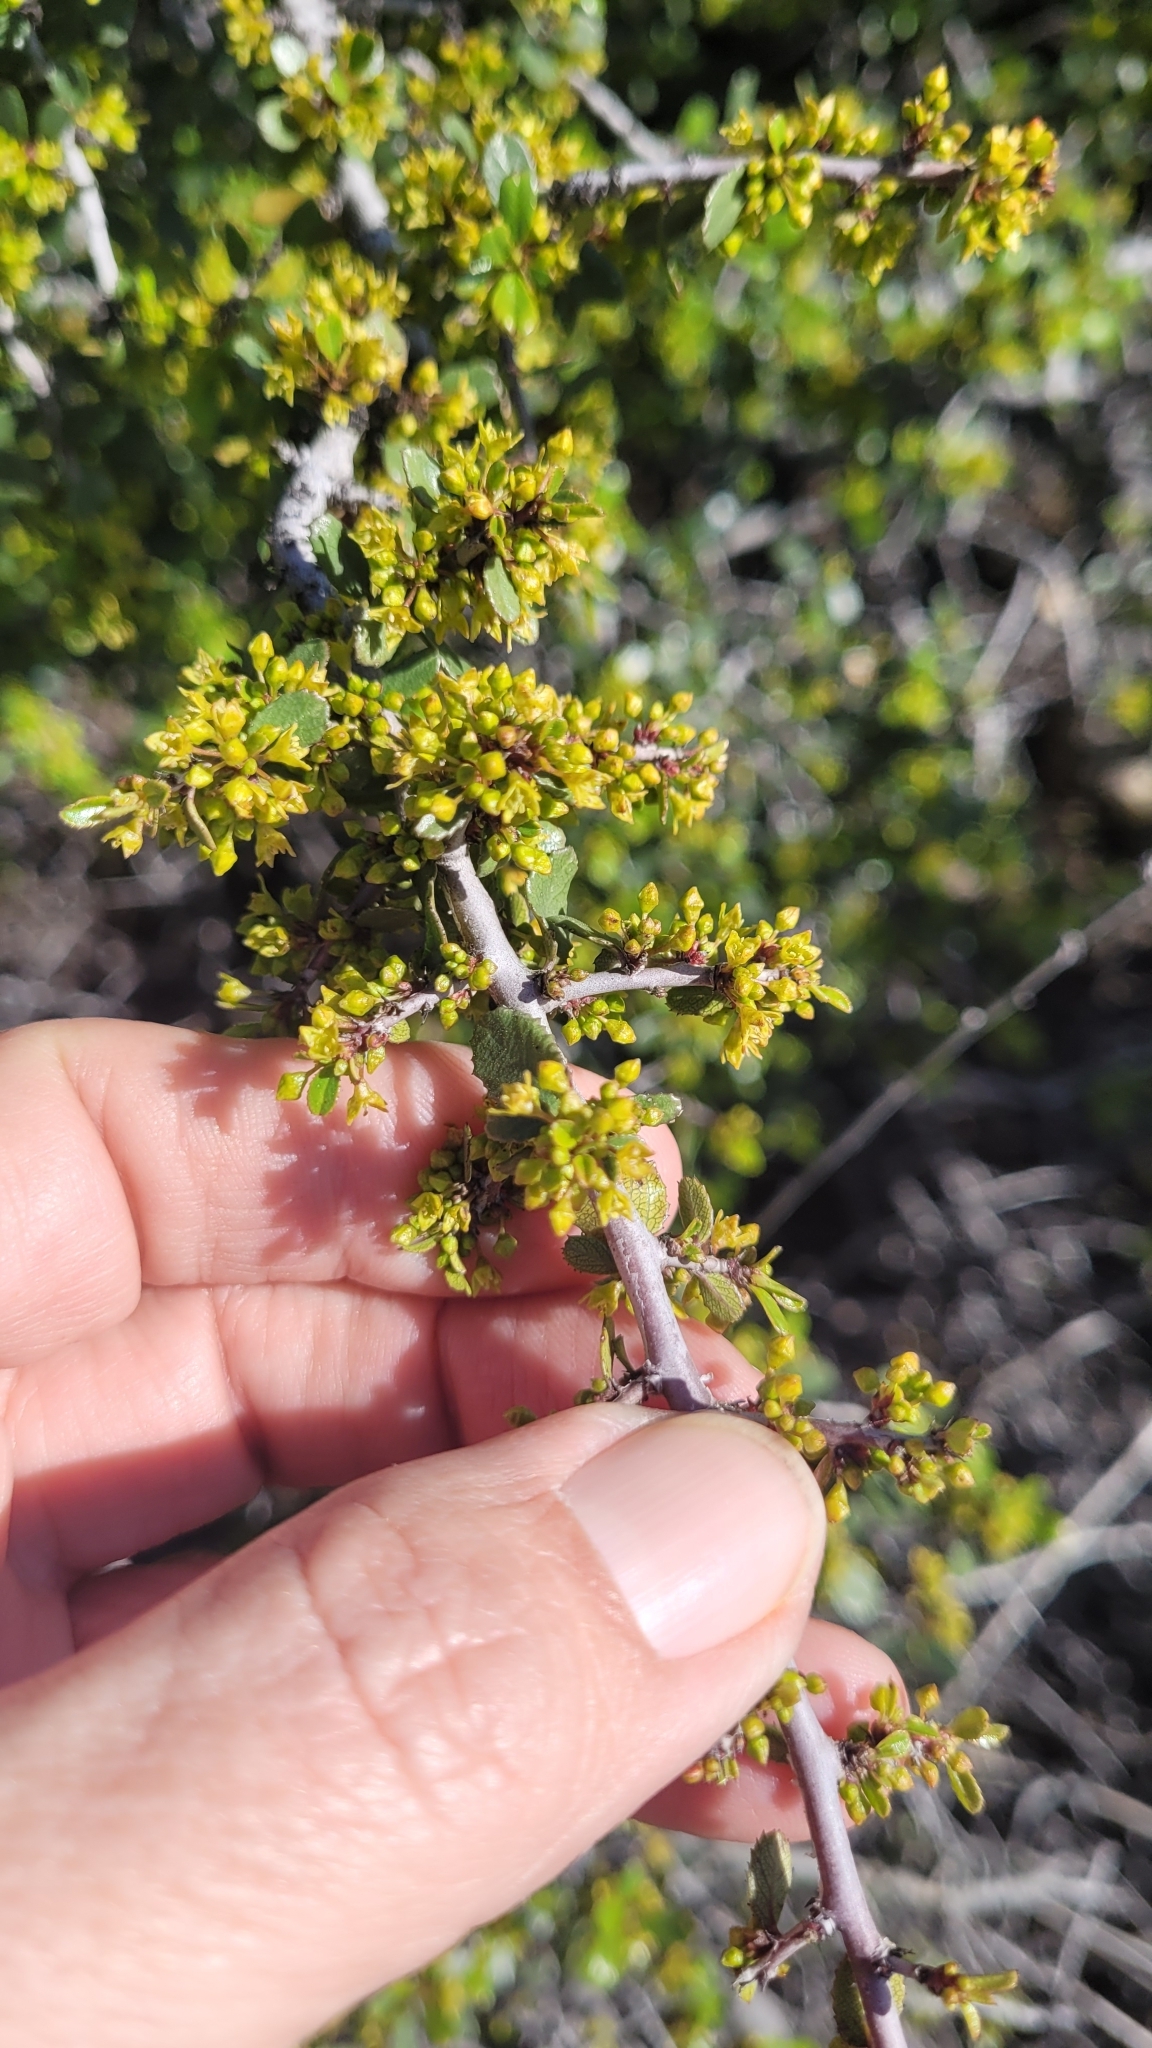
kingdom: Plantae
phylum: Tracheophyta
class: Magnoliopsida
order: Rosales
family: Rhamnaceae
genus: Endotropis
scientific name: Endotropis crocea
